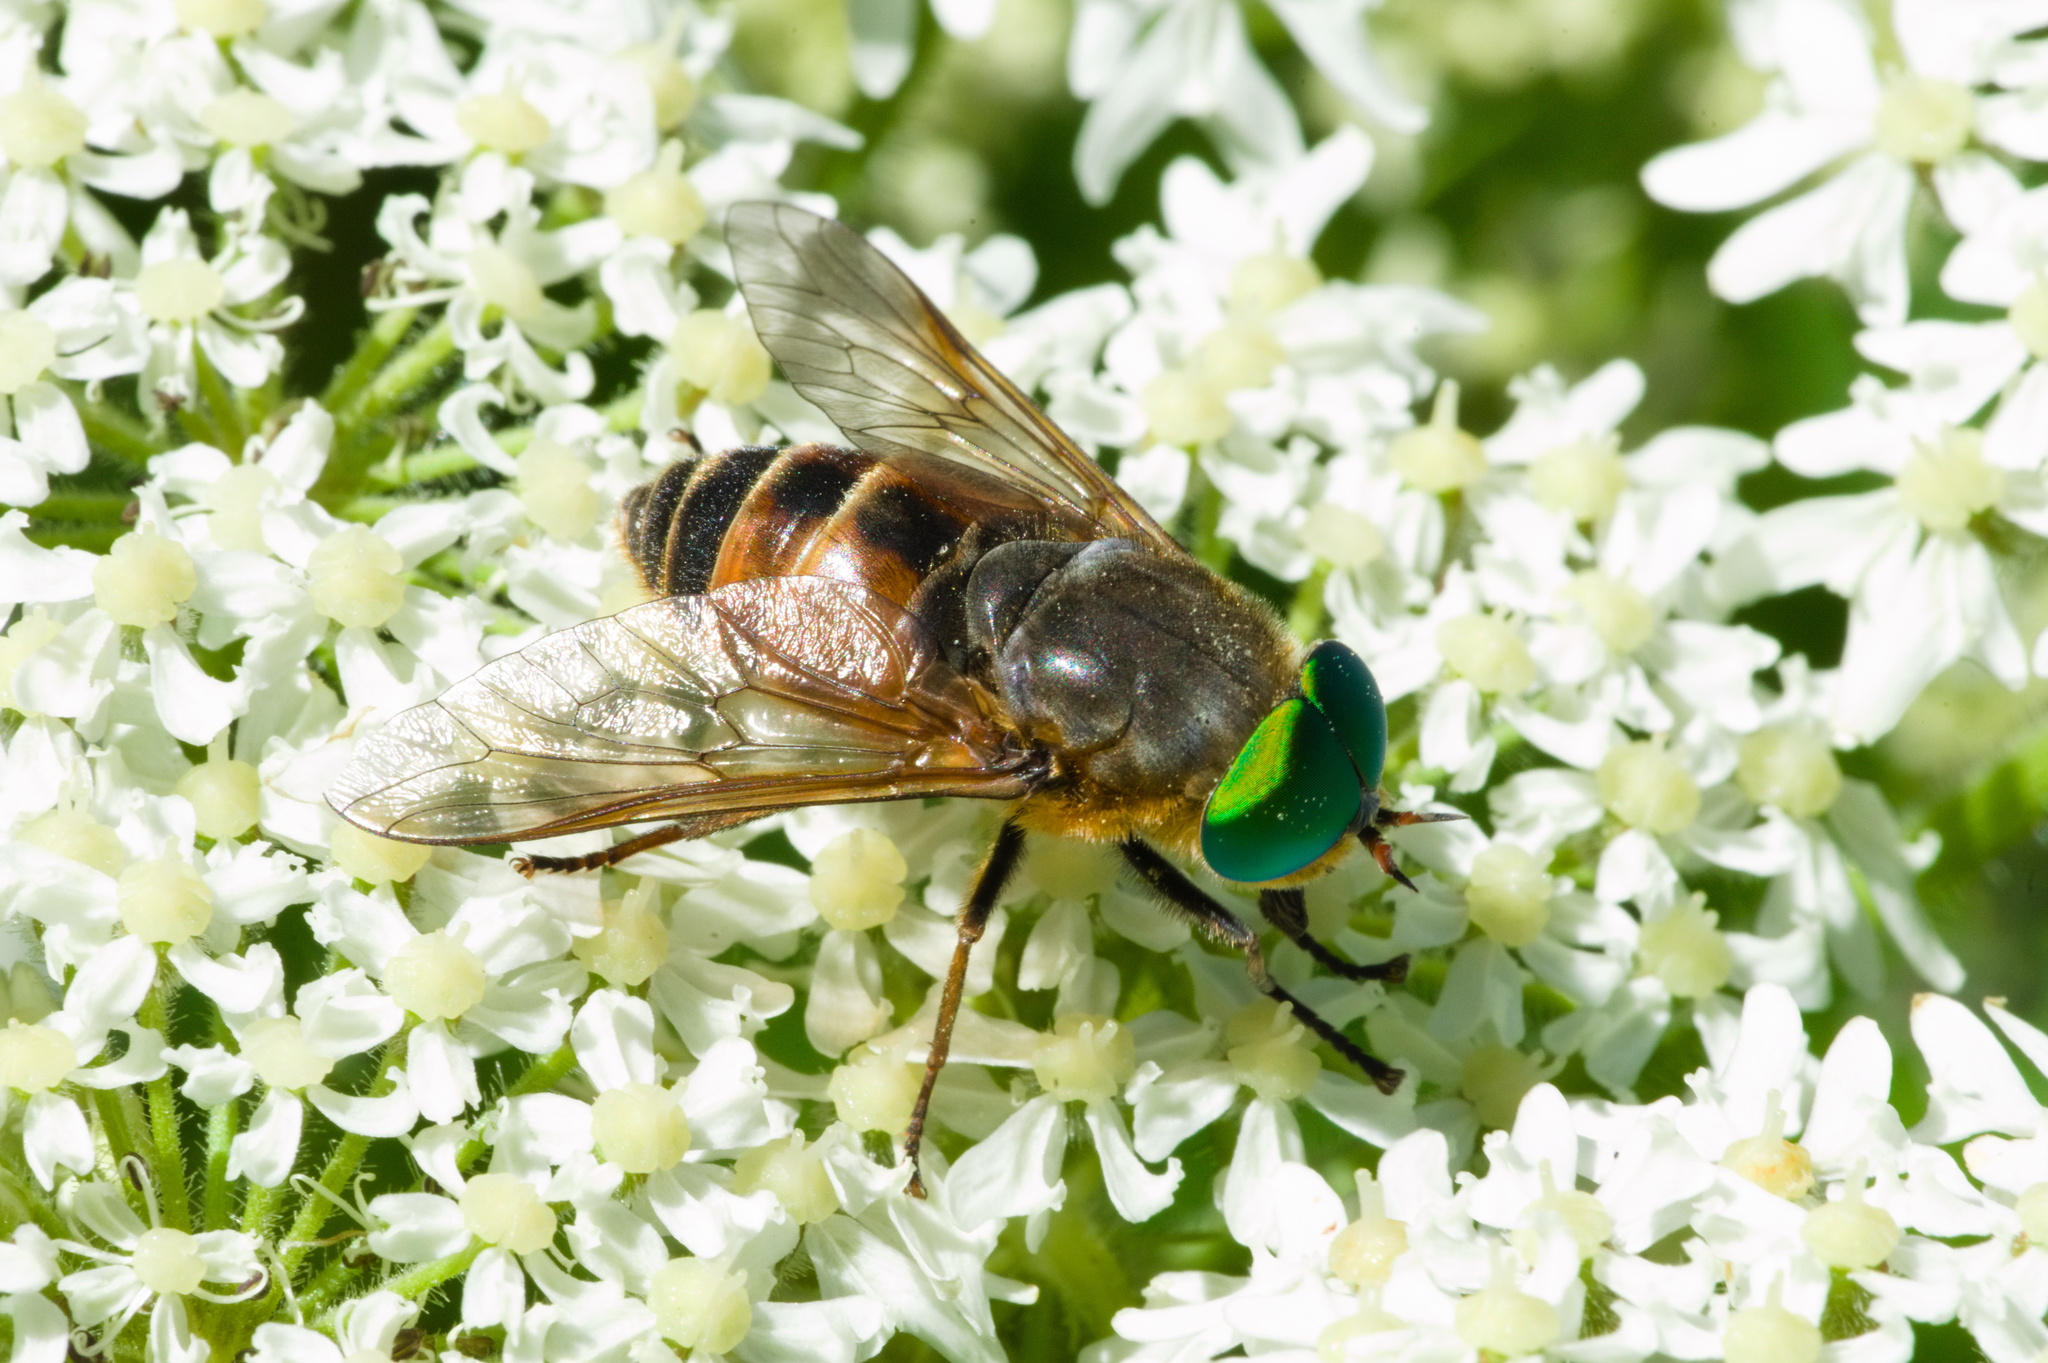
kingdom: Animalia
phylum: Arthropoda
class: Insecta
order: Diptera
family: Tabanidae
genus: Philipomyia
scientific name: Philipomyia aprica
